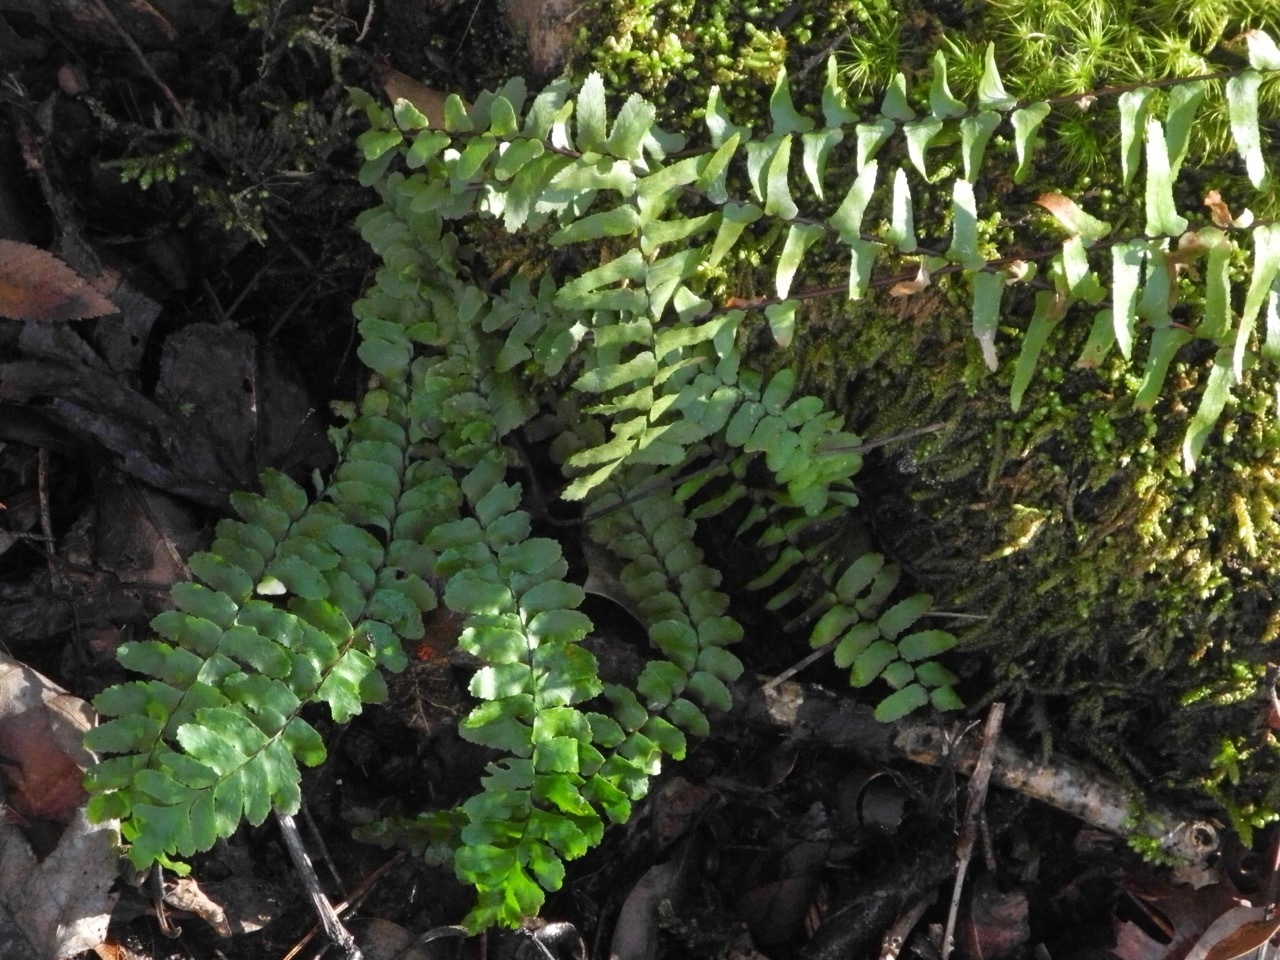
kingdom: Plantae
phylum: Tracheophyta
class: Polypodiopsida
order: Polypodiales
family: Aspleniaceae
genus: Asplenium
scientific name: Asplenium platyneuron
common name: Ebony spleenwort
